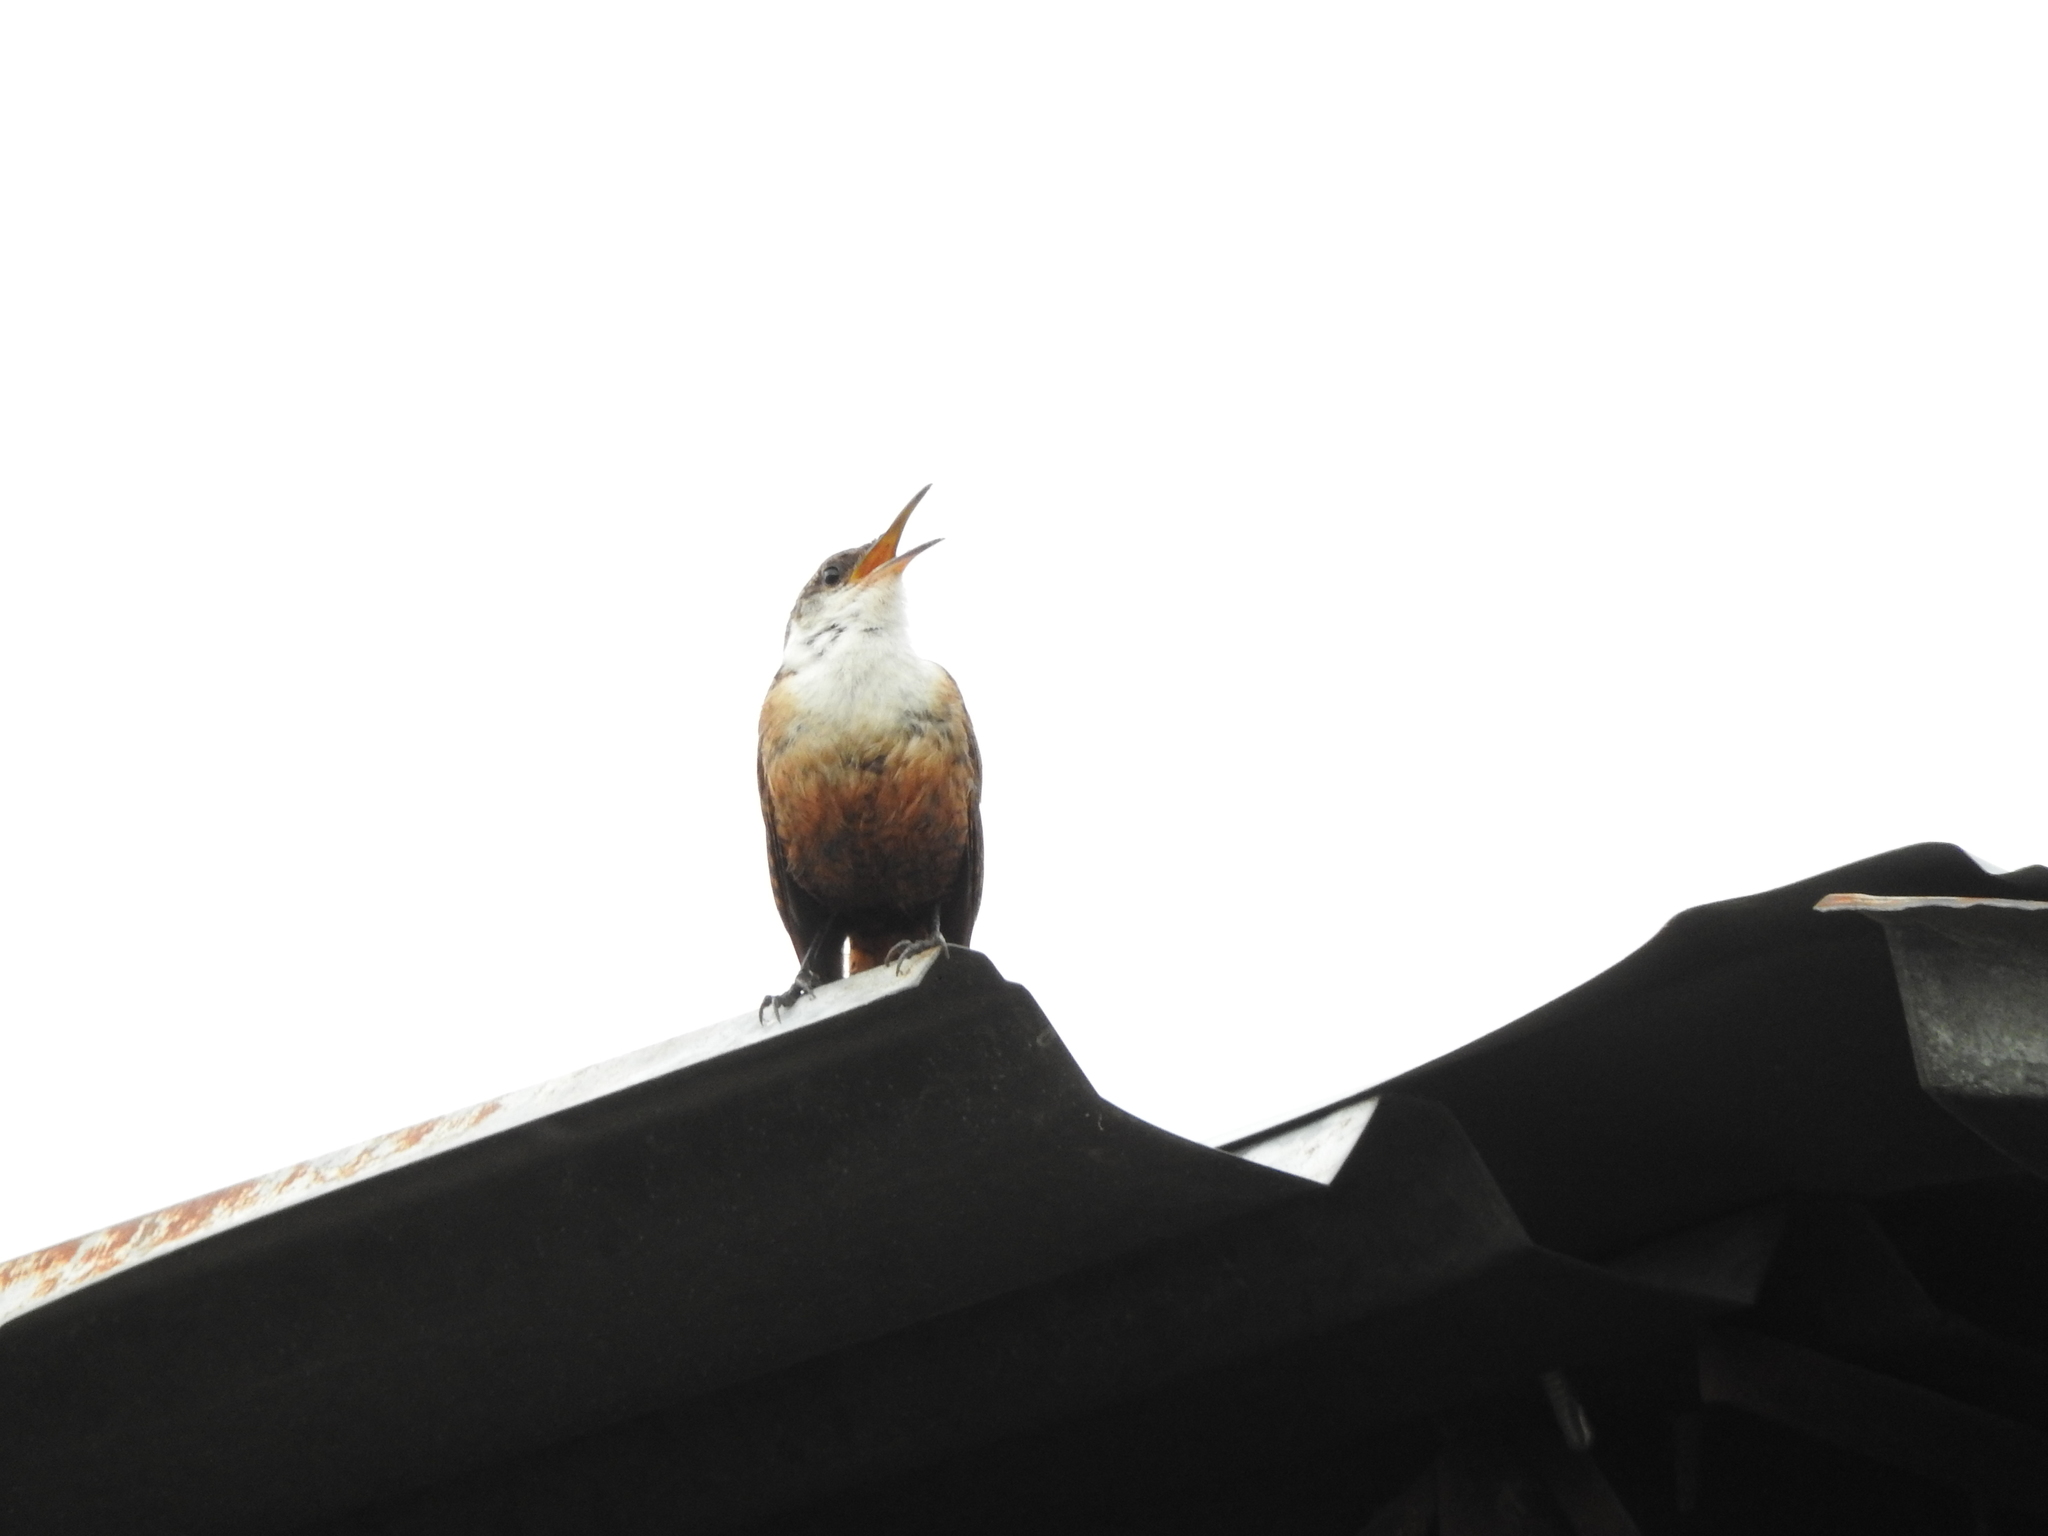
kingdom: Animalia
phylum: Chordata
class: Aves
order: Passeriformes
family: Troglodytidae
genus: Catherpes
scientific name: Catherpes mexicanus
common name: Canyon wren
